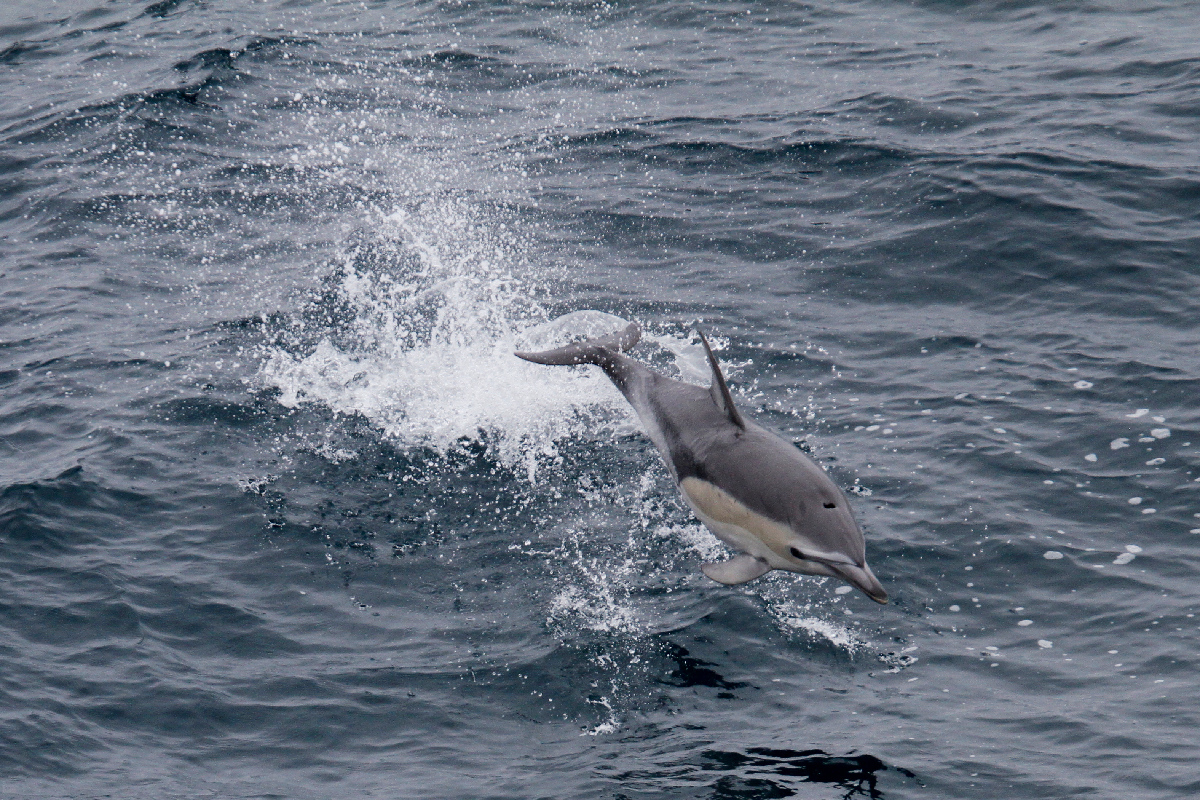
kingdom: Animalia
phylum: Chordata
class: Mammalia
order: Cetacea
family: Delphinidae
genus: Delphinus
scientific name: Delphinus delphis
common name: Common dolphin
